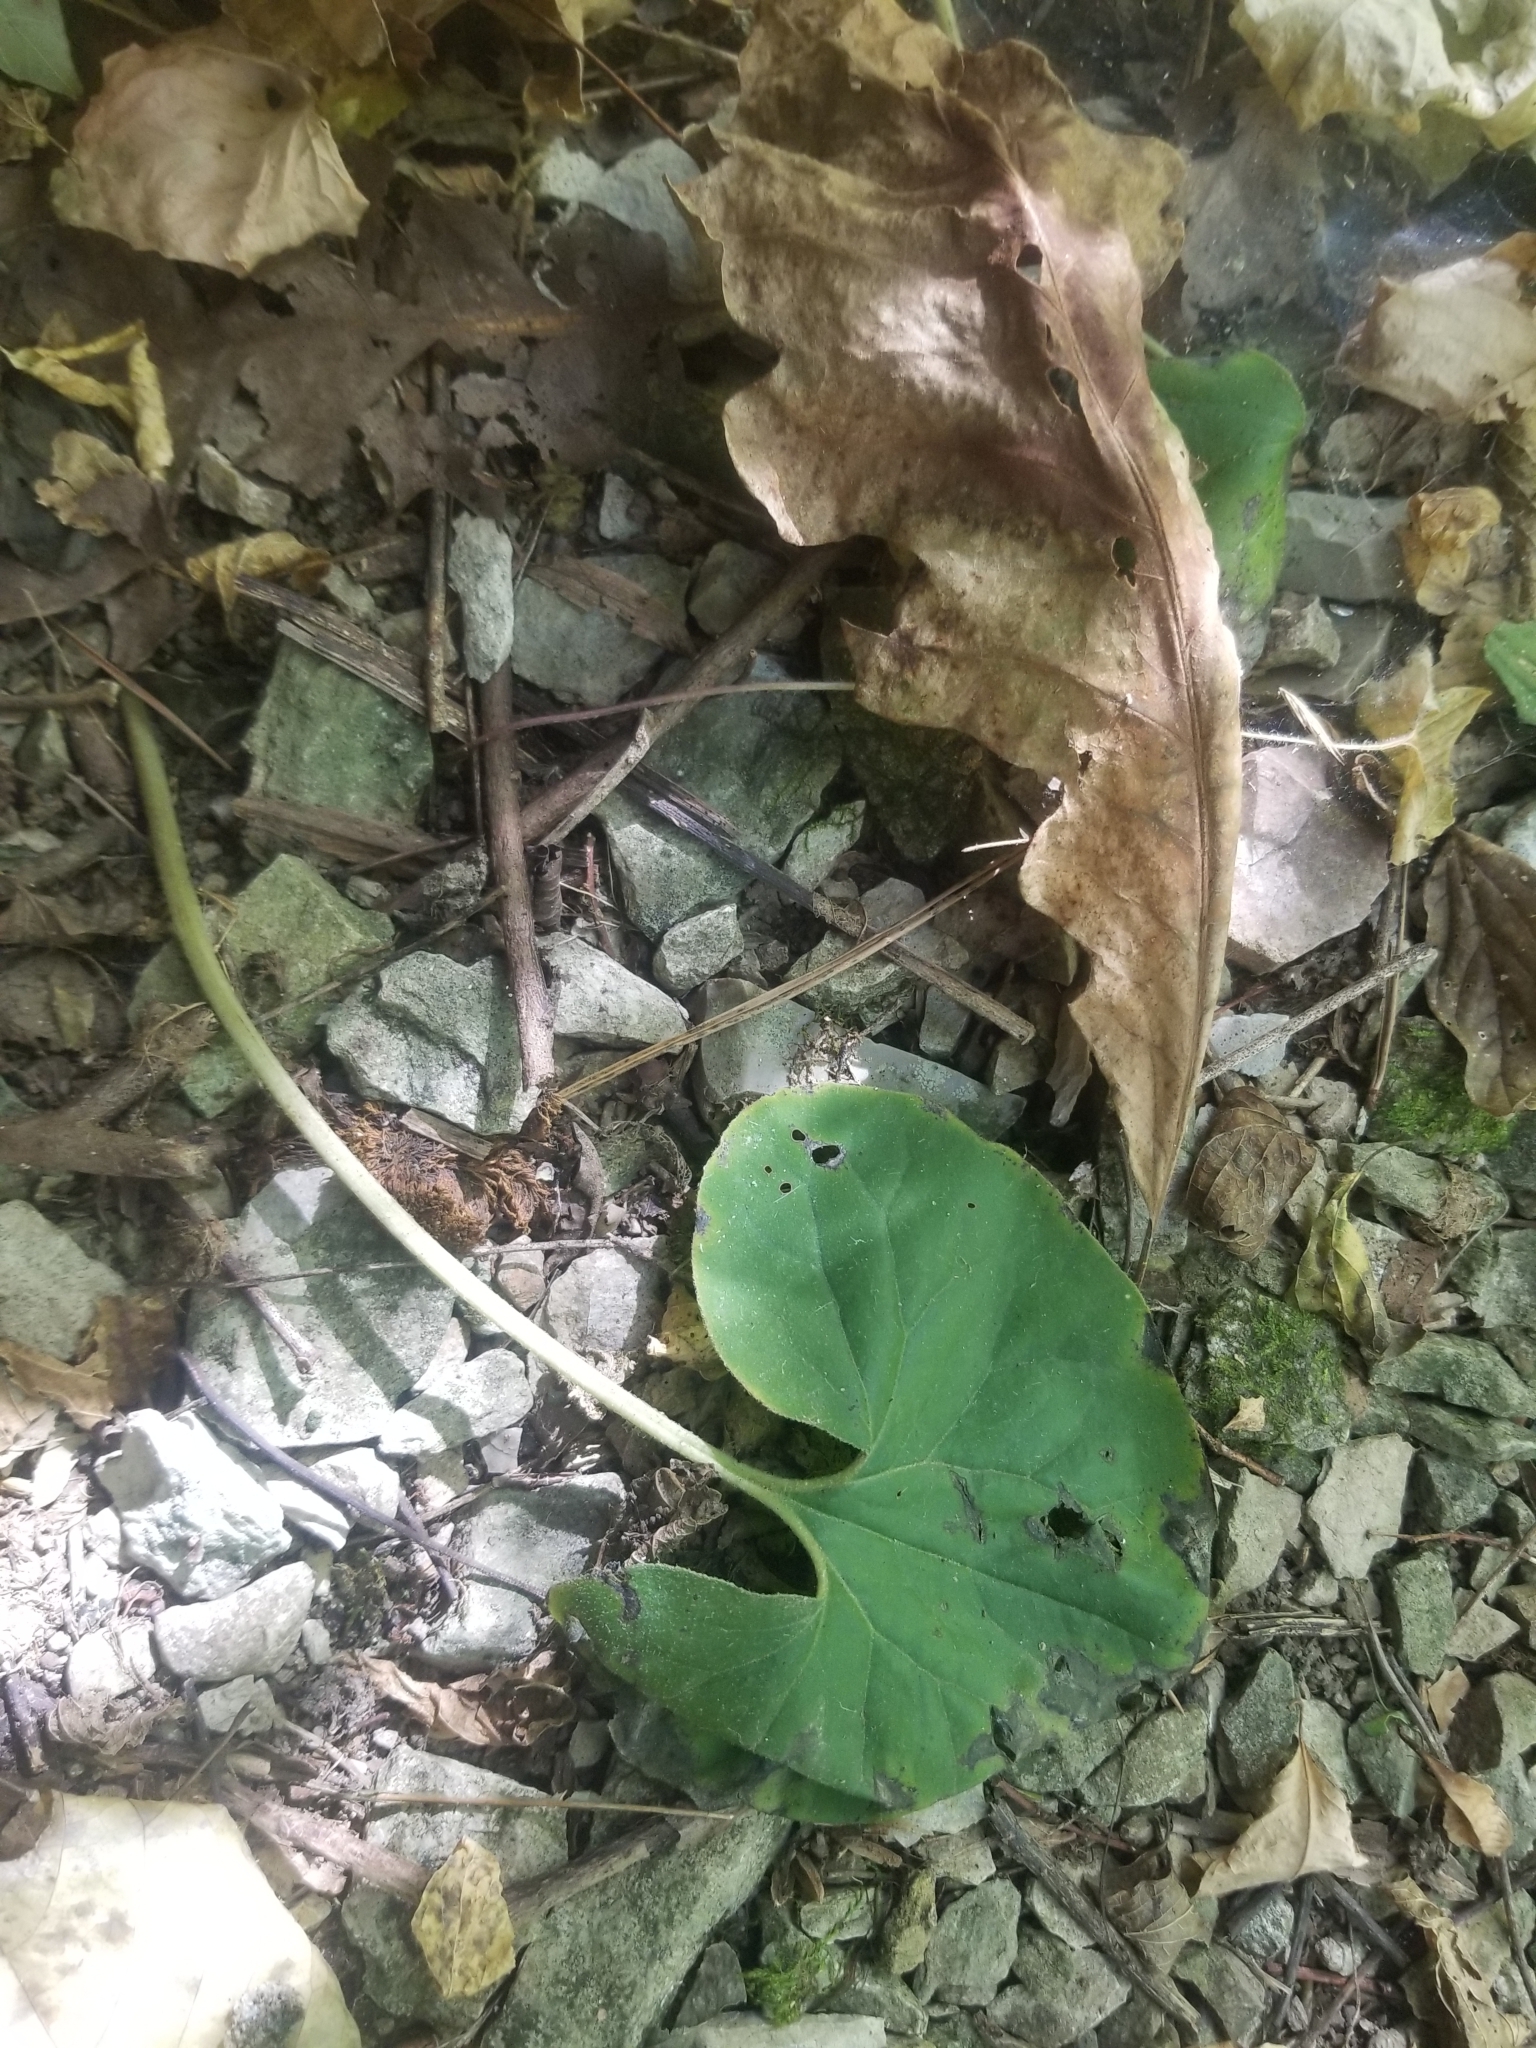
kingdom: Plantae
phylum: Tracheophyta
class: Magnoliopsida
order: Piperales
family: Aristolochiaceae
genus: Asarum
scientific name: Asarum canadense
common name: Wild ginger
